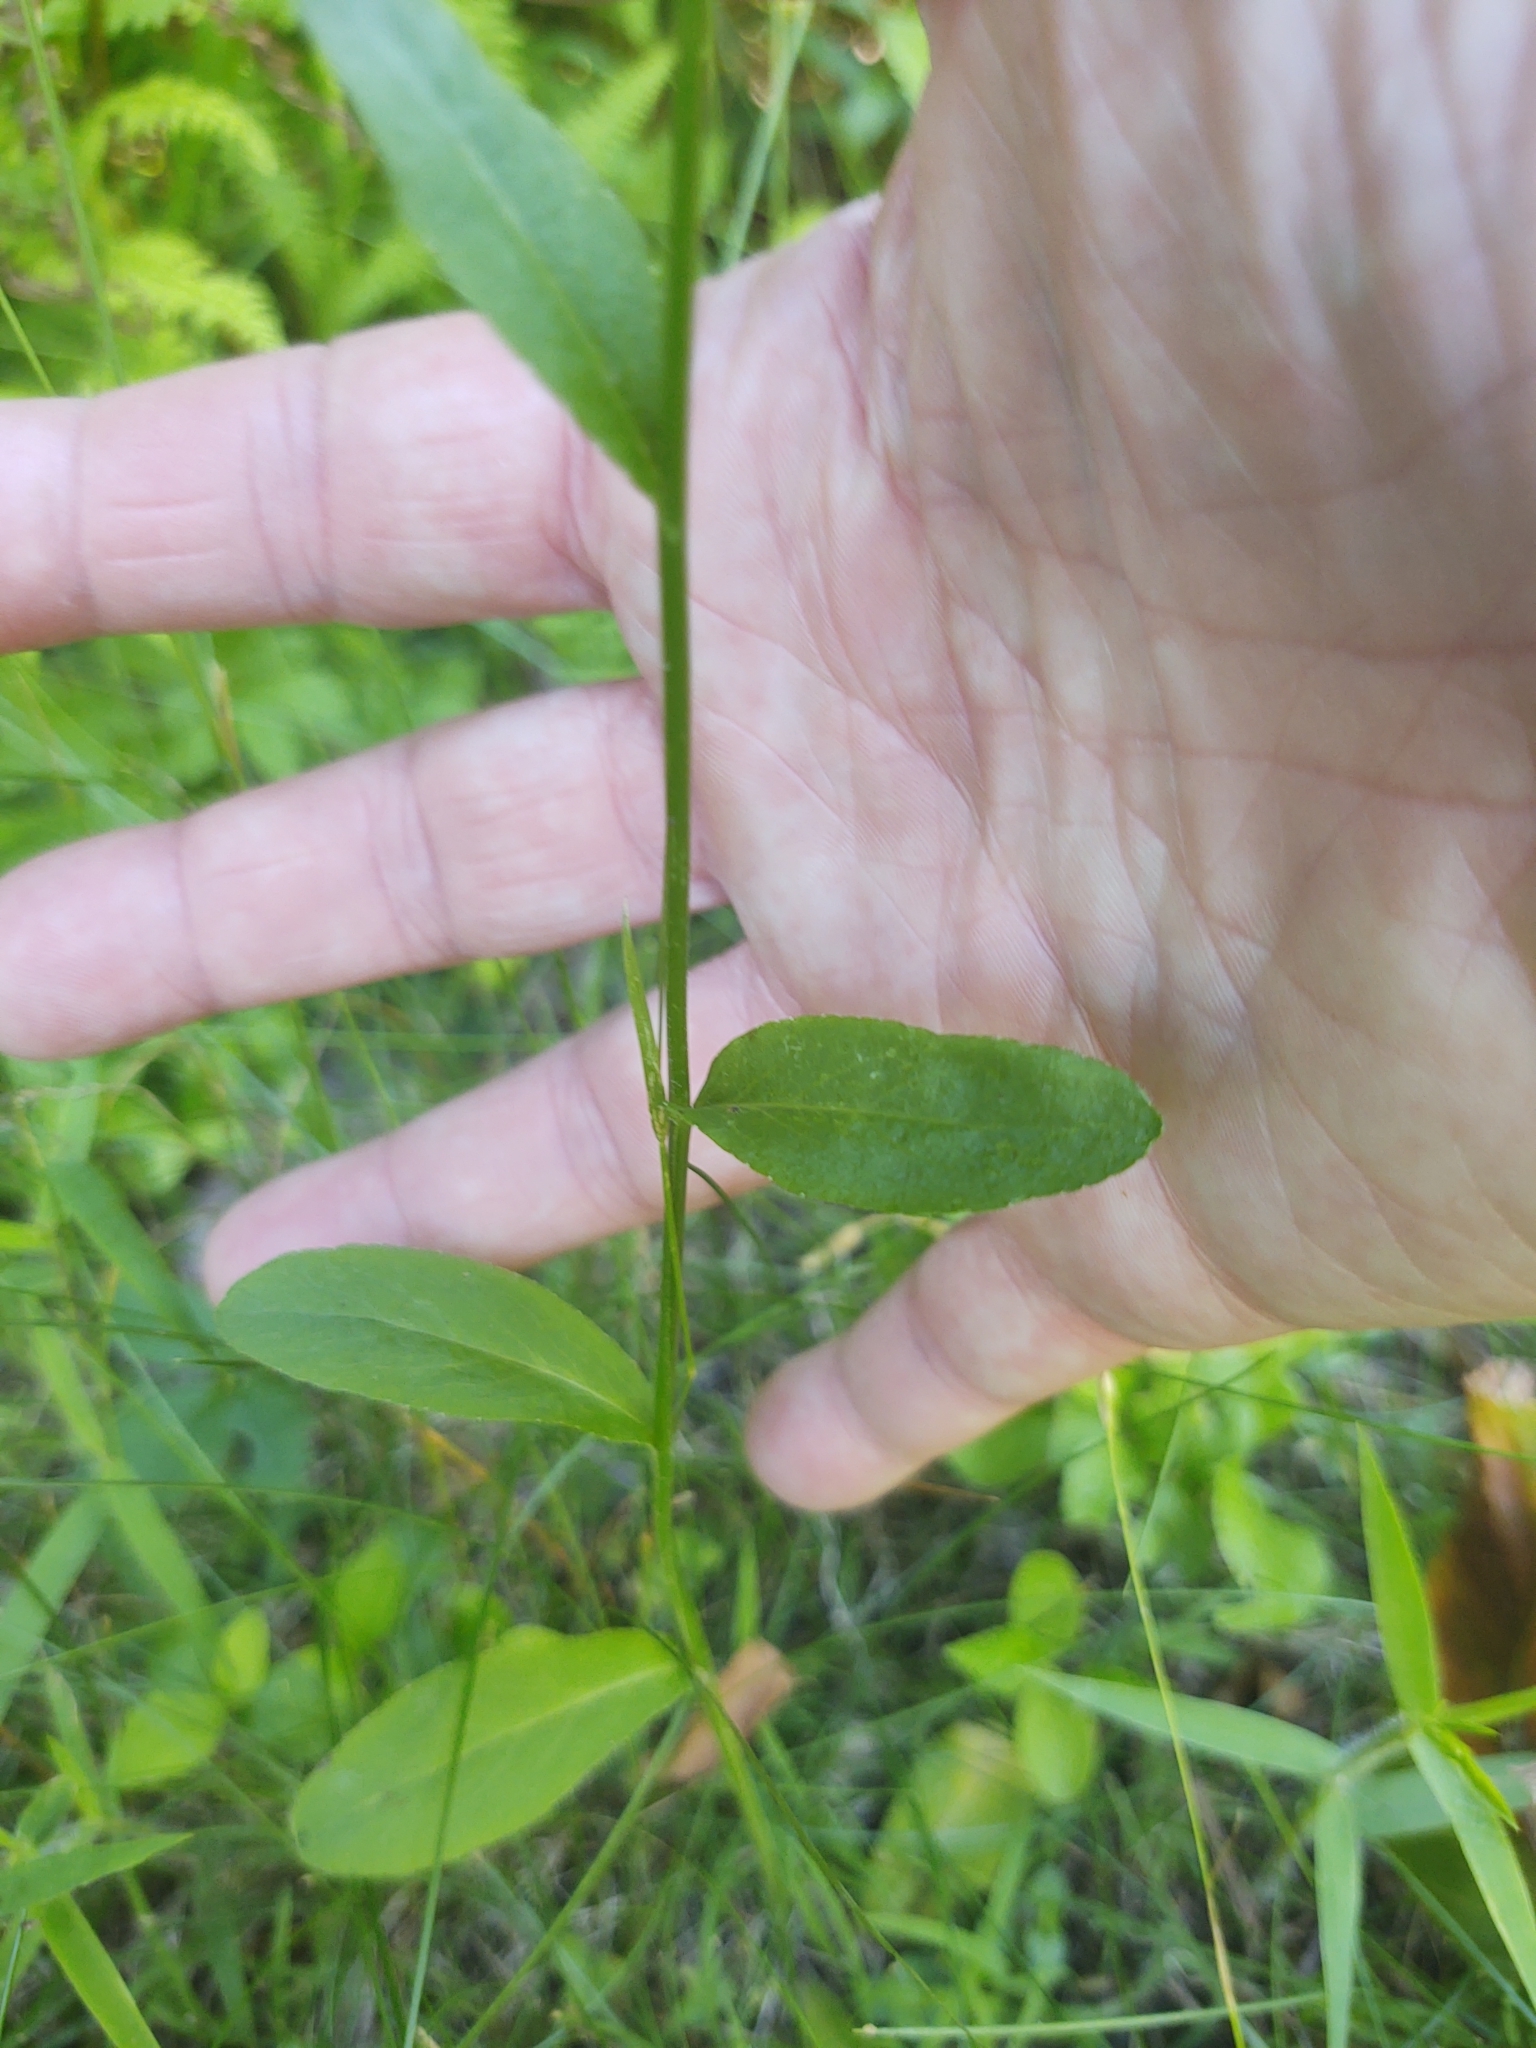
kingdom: Plantae
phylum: Tracheophyta
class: Magnoliopsida
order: Asterales
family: Campanulaceae
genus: Lobelia
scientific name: Lobelia spicata
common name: Pale-spike lobelia
